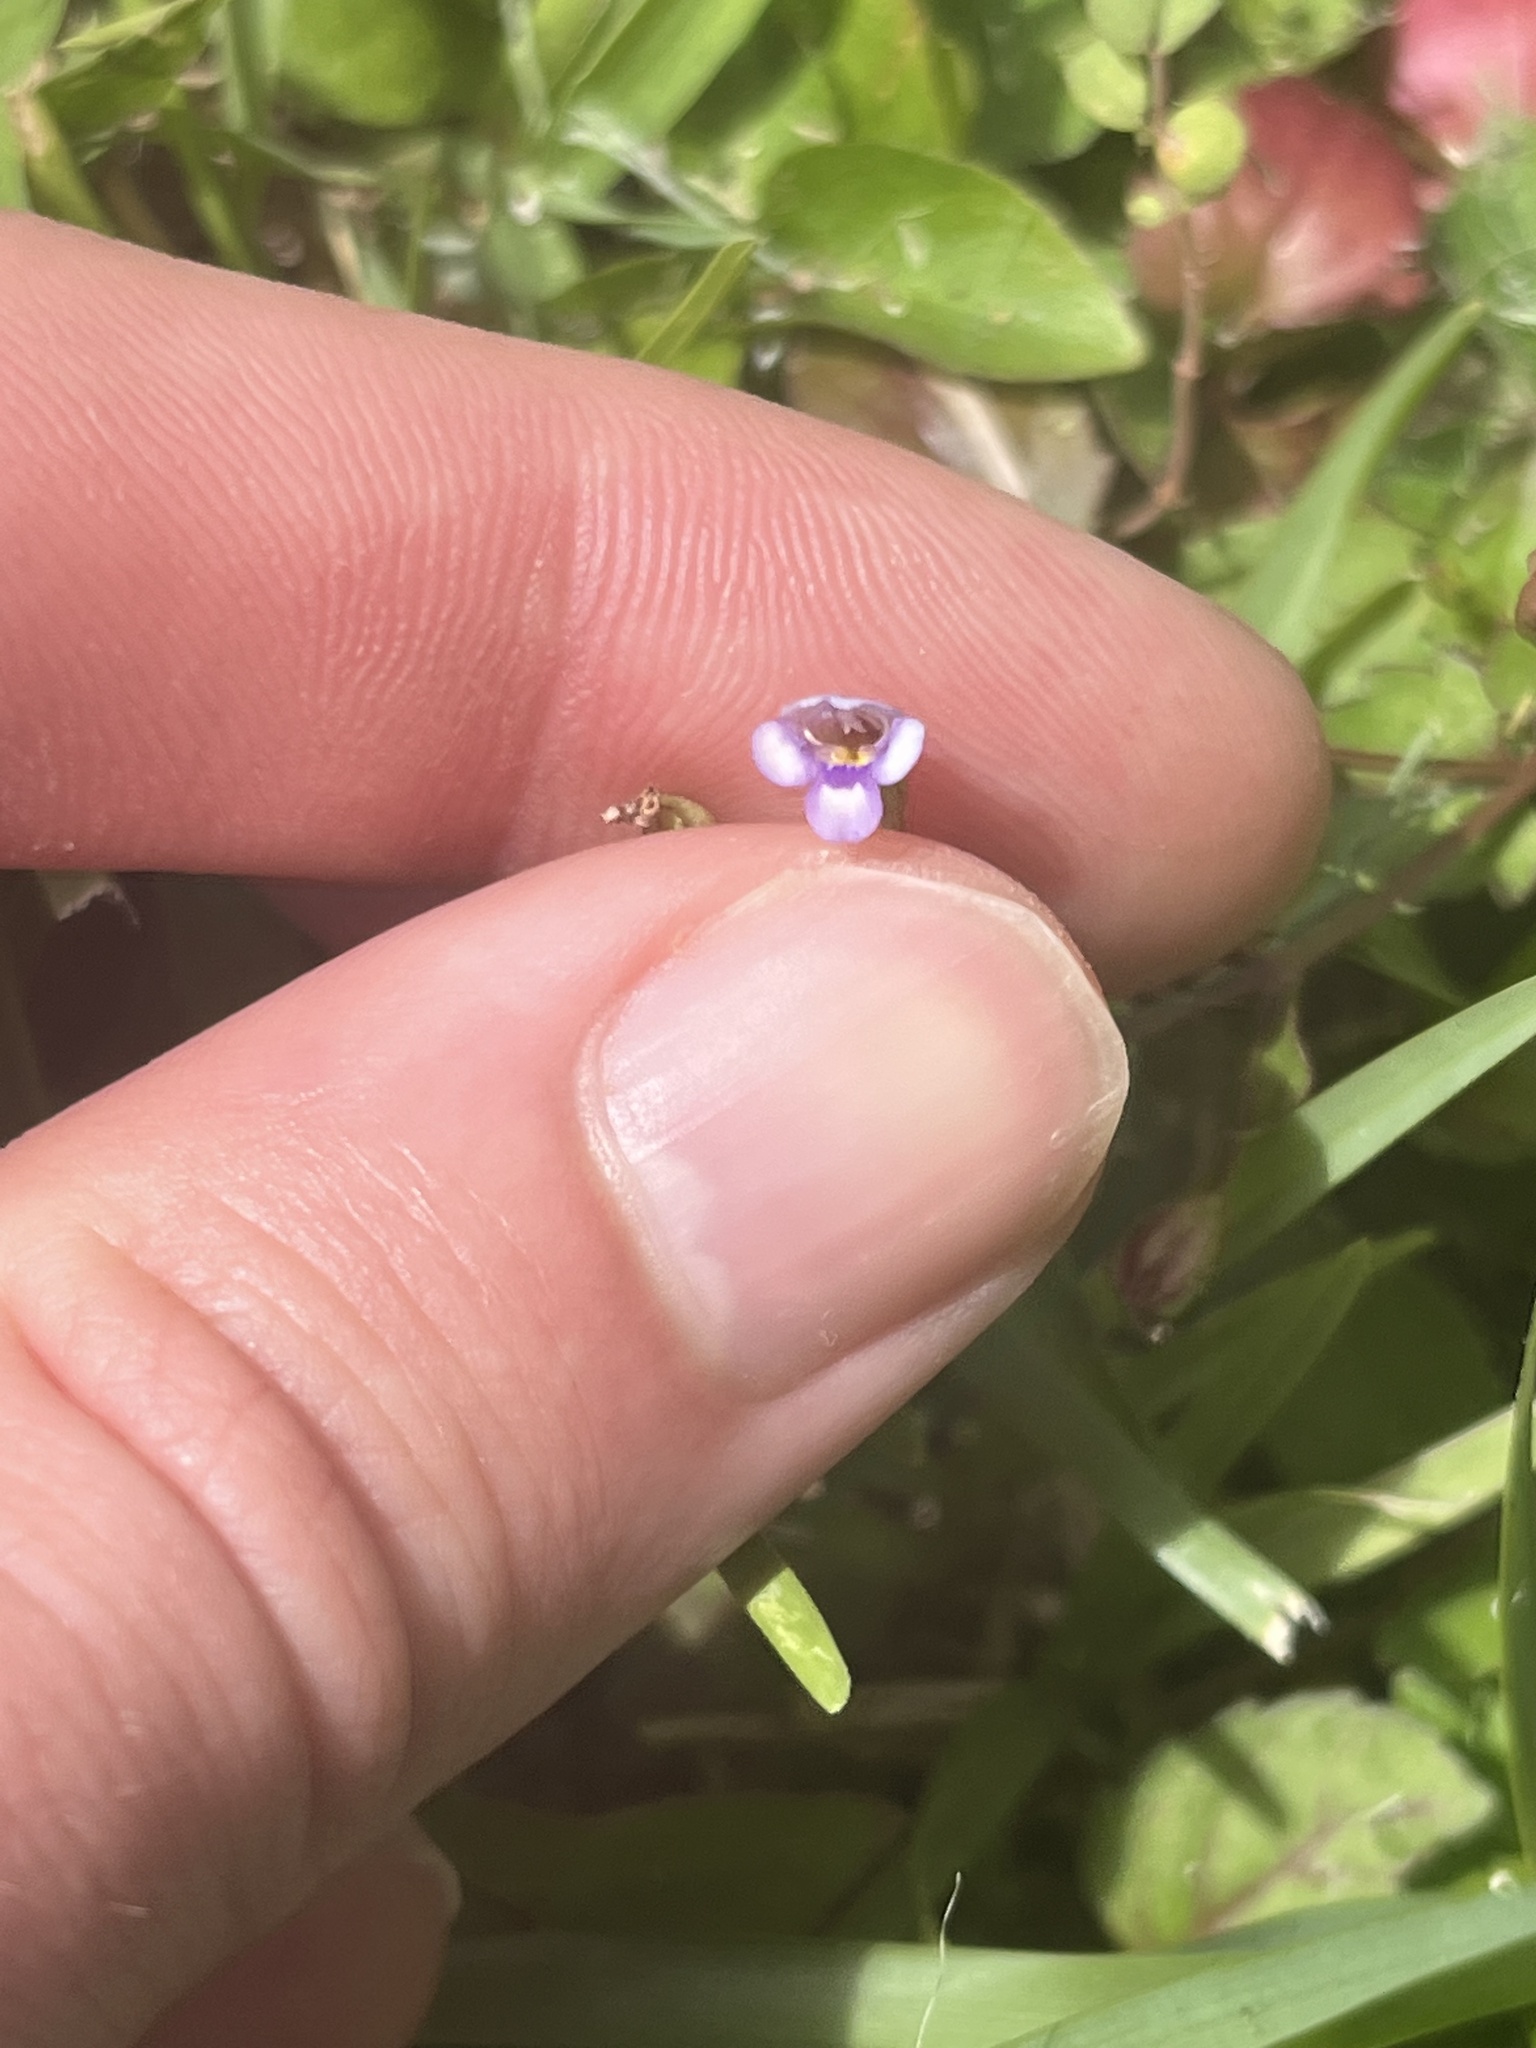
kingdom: Plantae
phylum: Tracheophyta
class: Magnoliopsida
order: Lamiales
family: Linderniaceae
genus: Torenia
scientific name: Torenia crustacea
